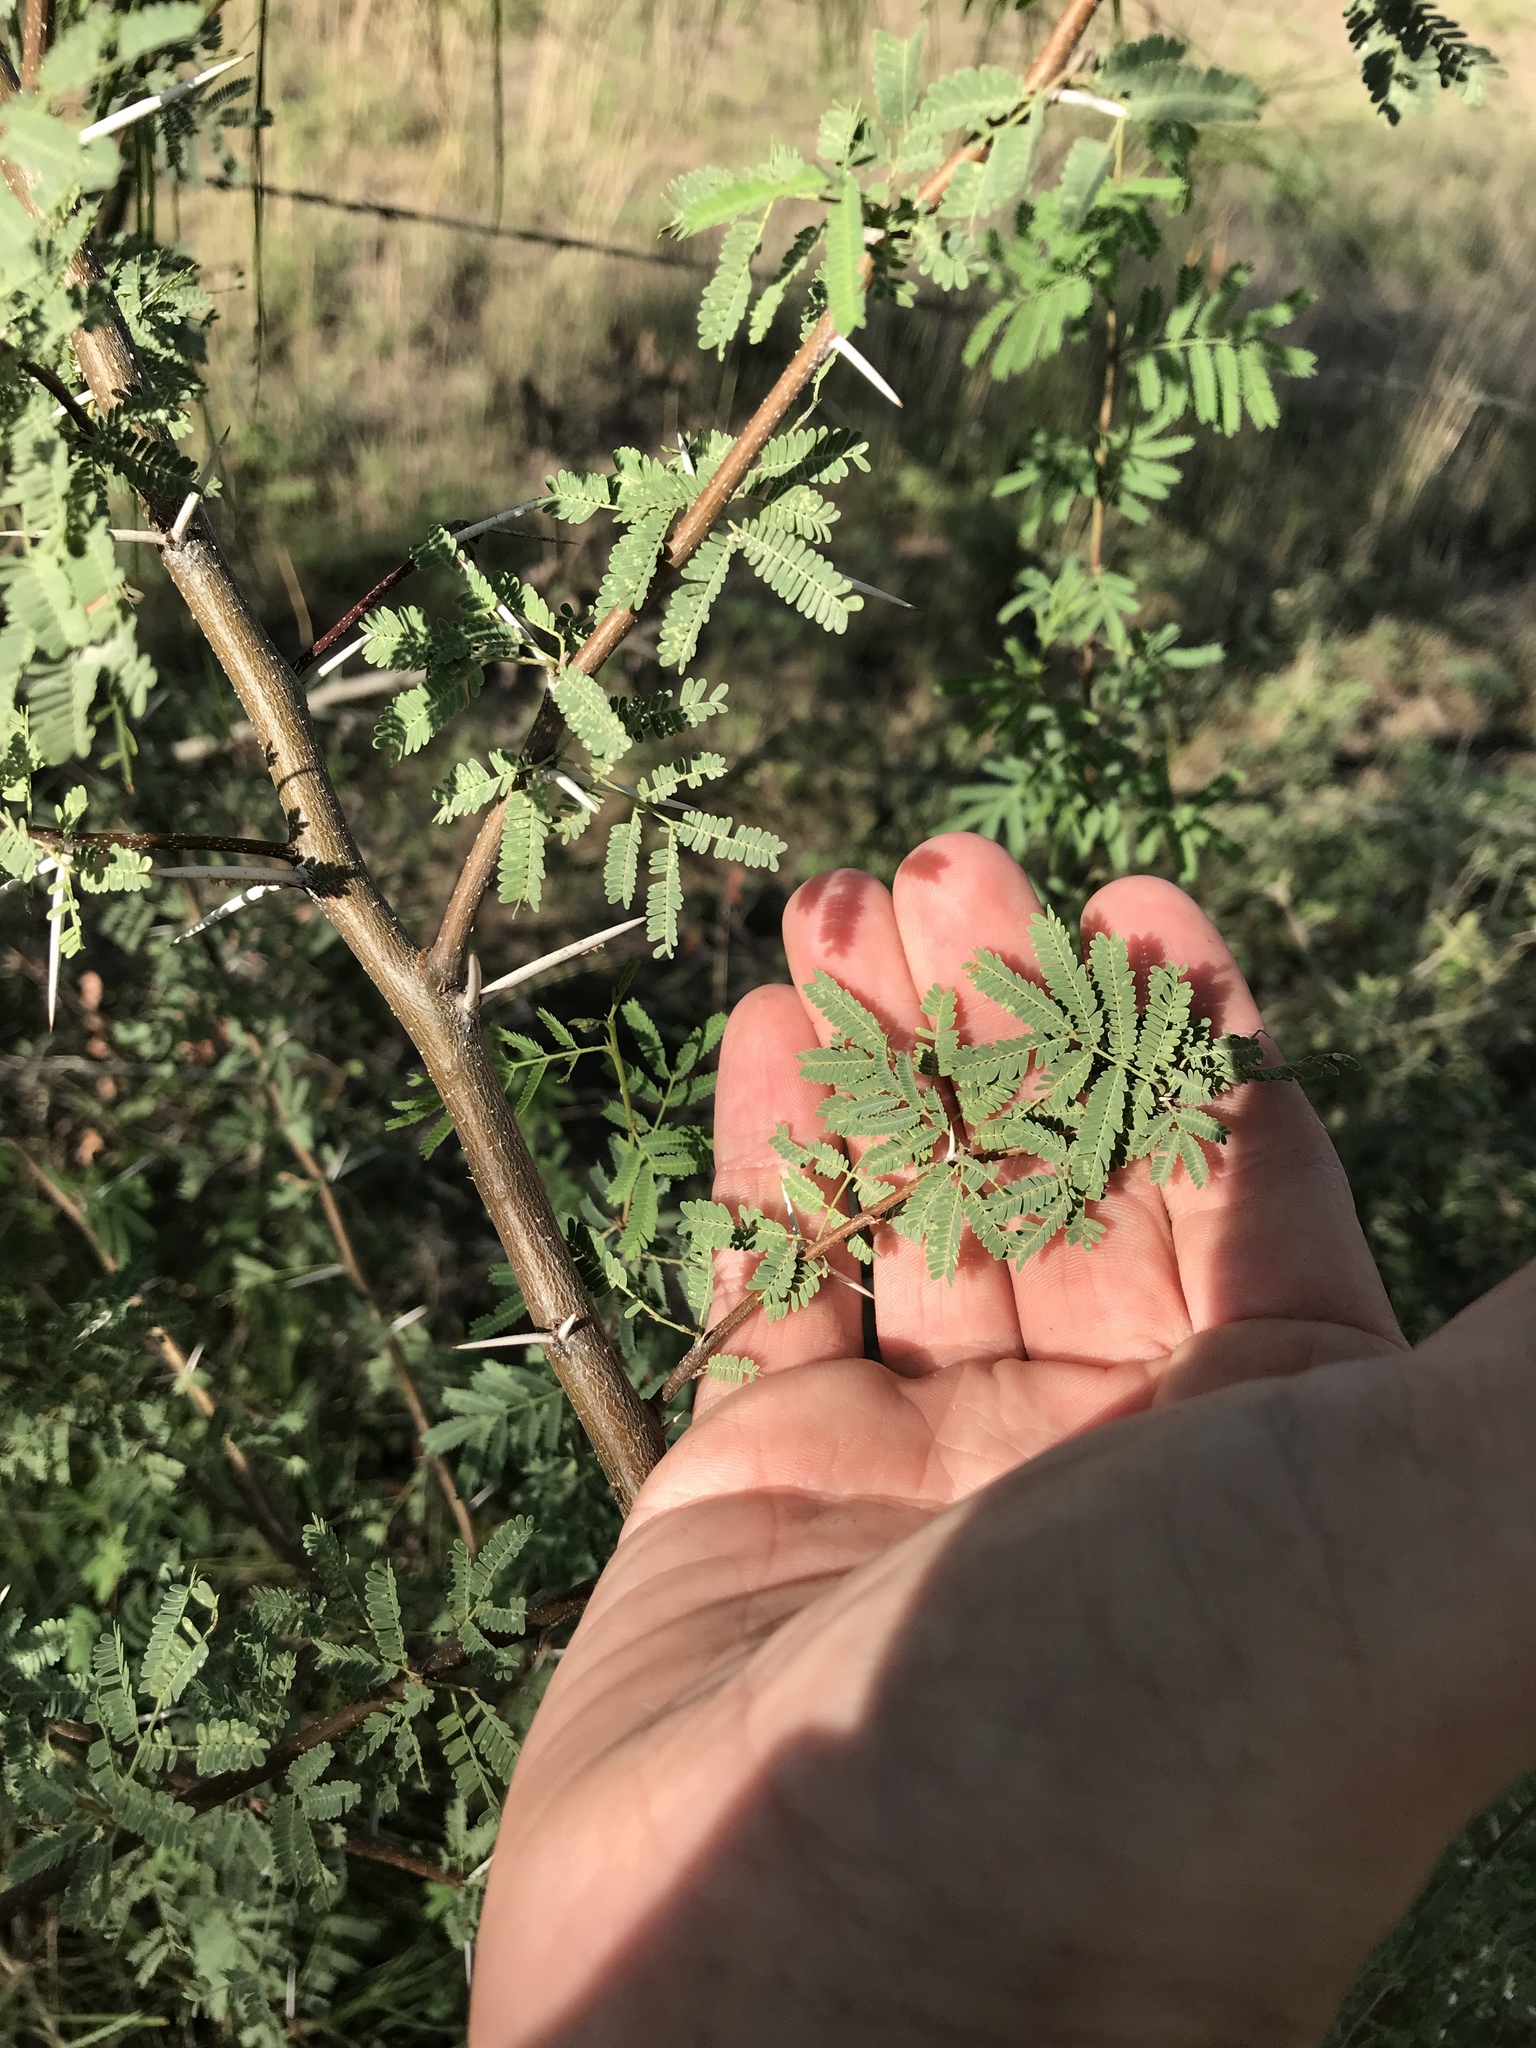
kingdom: Plantae
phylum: Tracheophyta
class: Magnoliopsida
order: Fabales
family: Fabaceae
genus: Vachellia
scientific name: Vachellia farnesiana
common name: Sweet acacia
